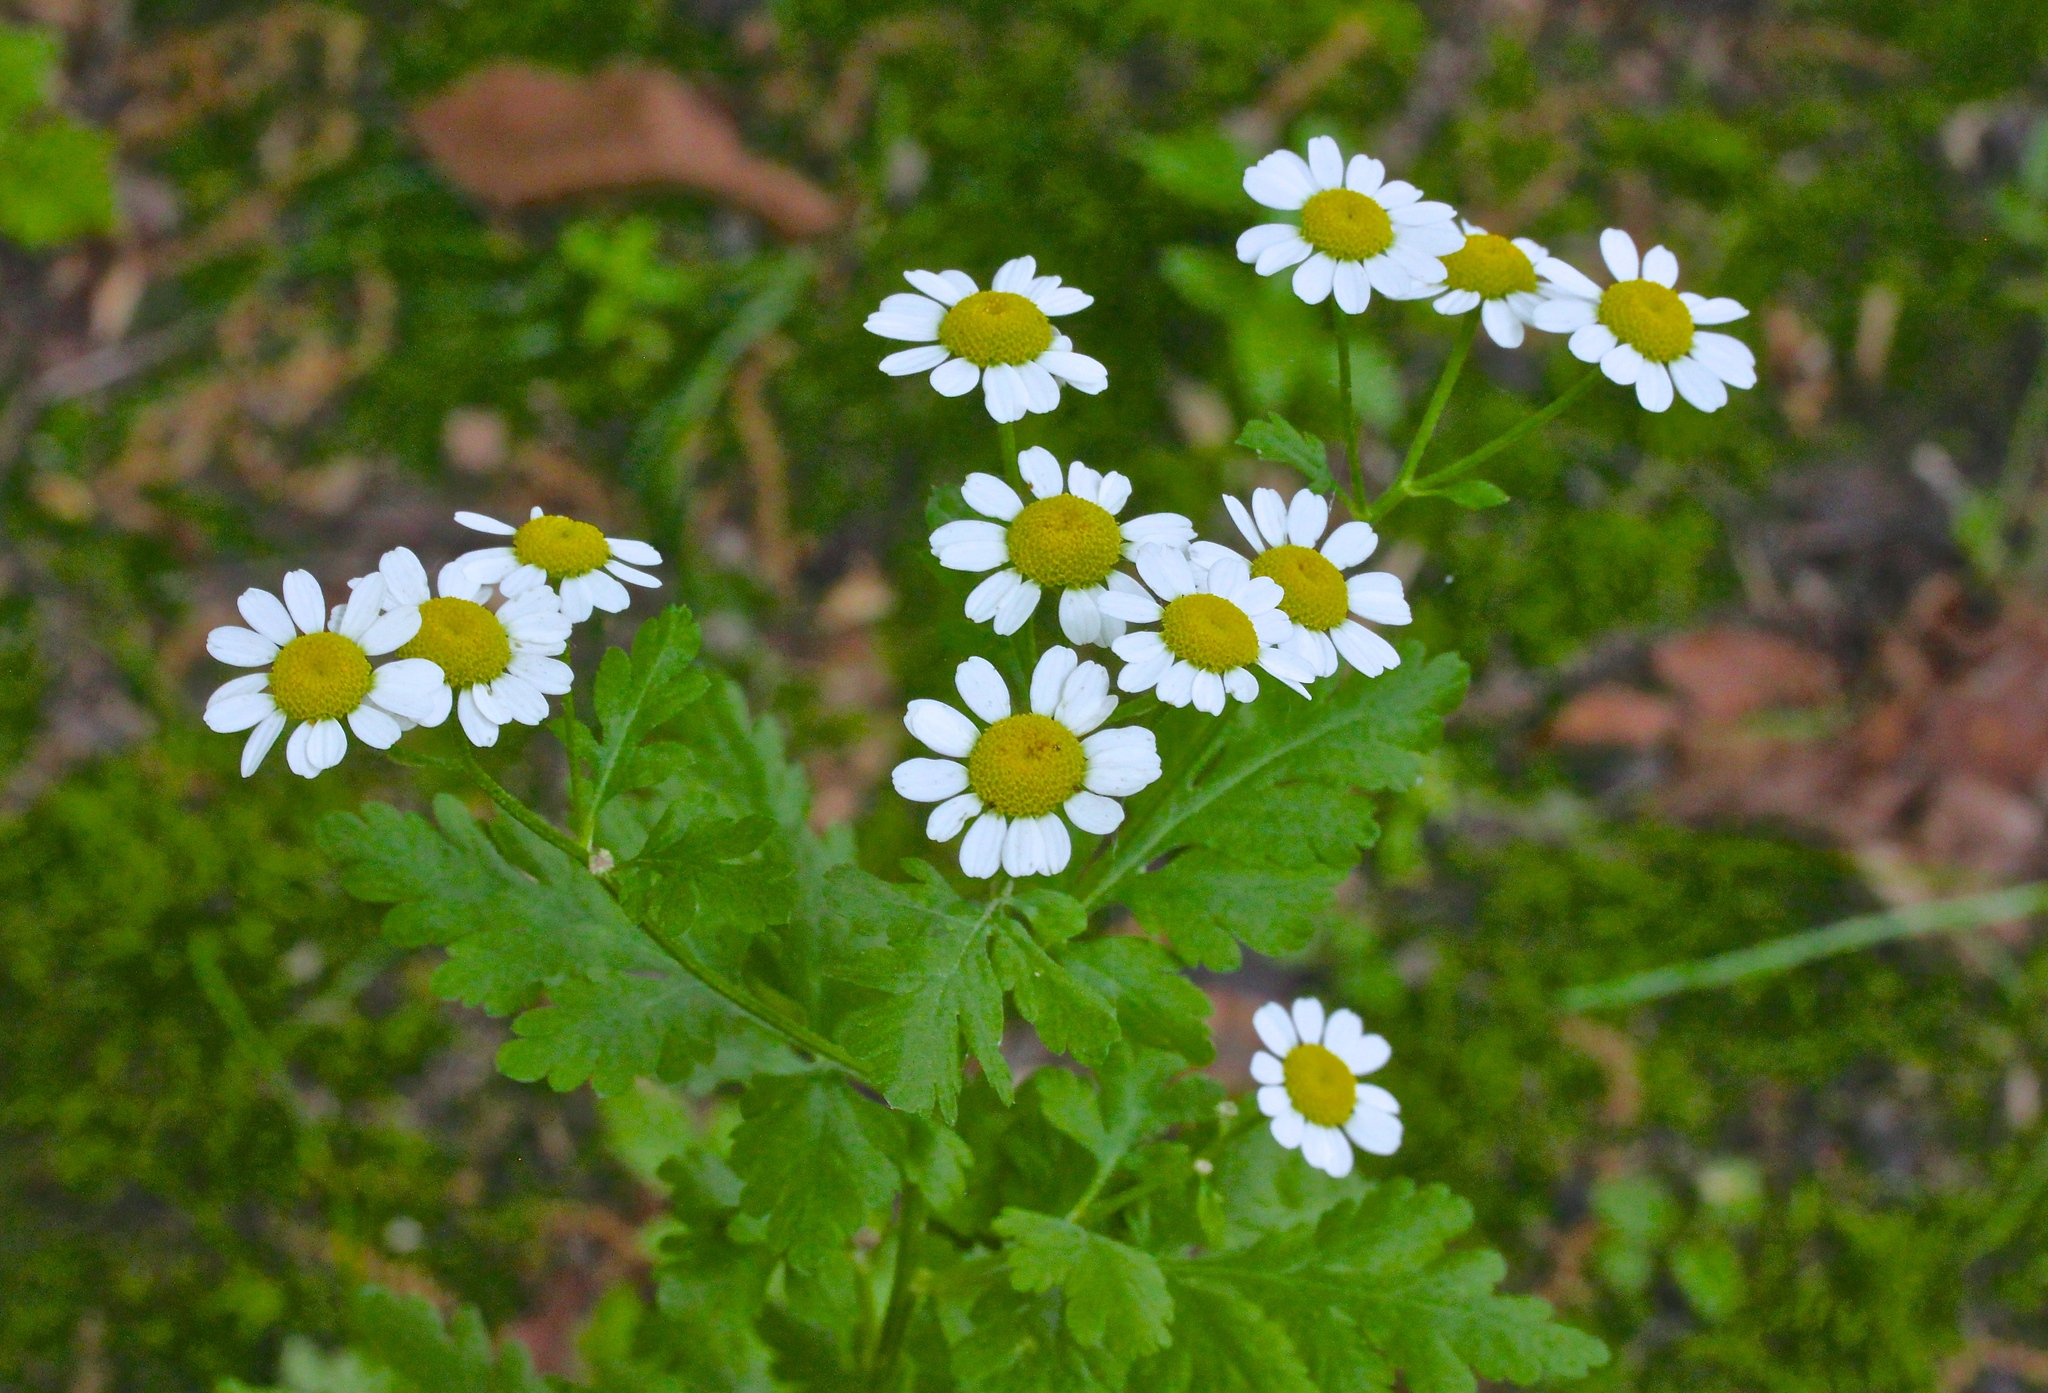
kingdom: Plantae
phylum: Tracheophyta
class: Magnoliopsida
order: Asterales
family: Asteraceae
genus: Tanacetum
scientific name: Tanacetum parthenium
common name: Feverfew
